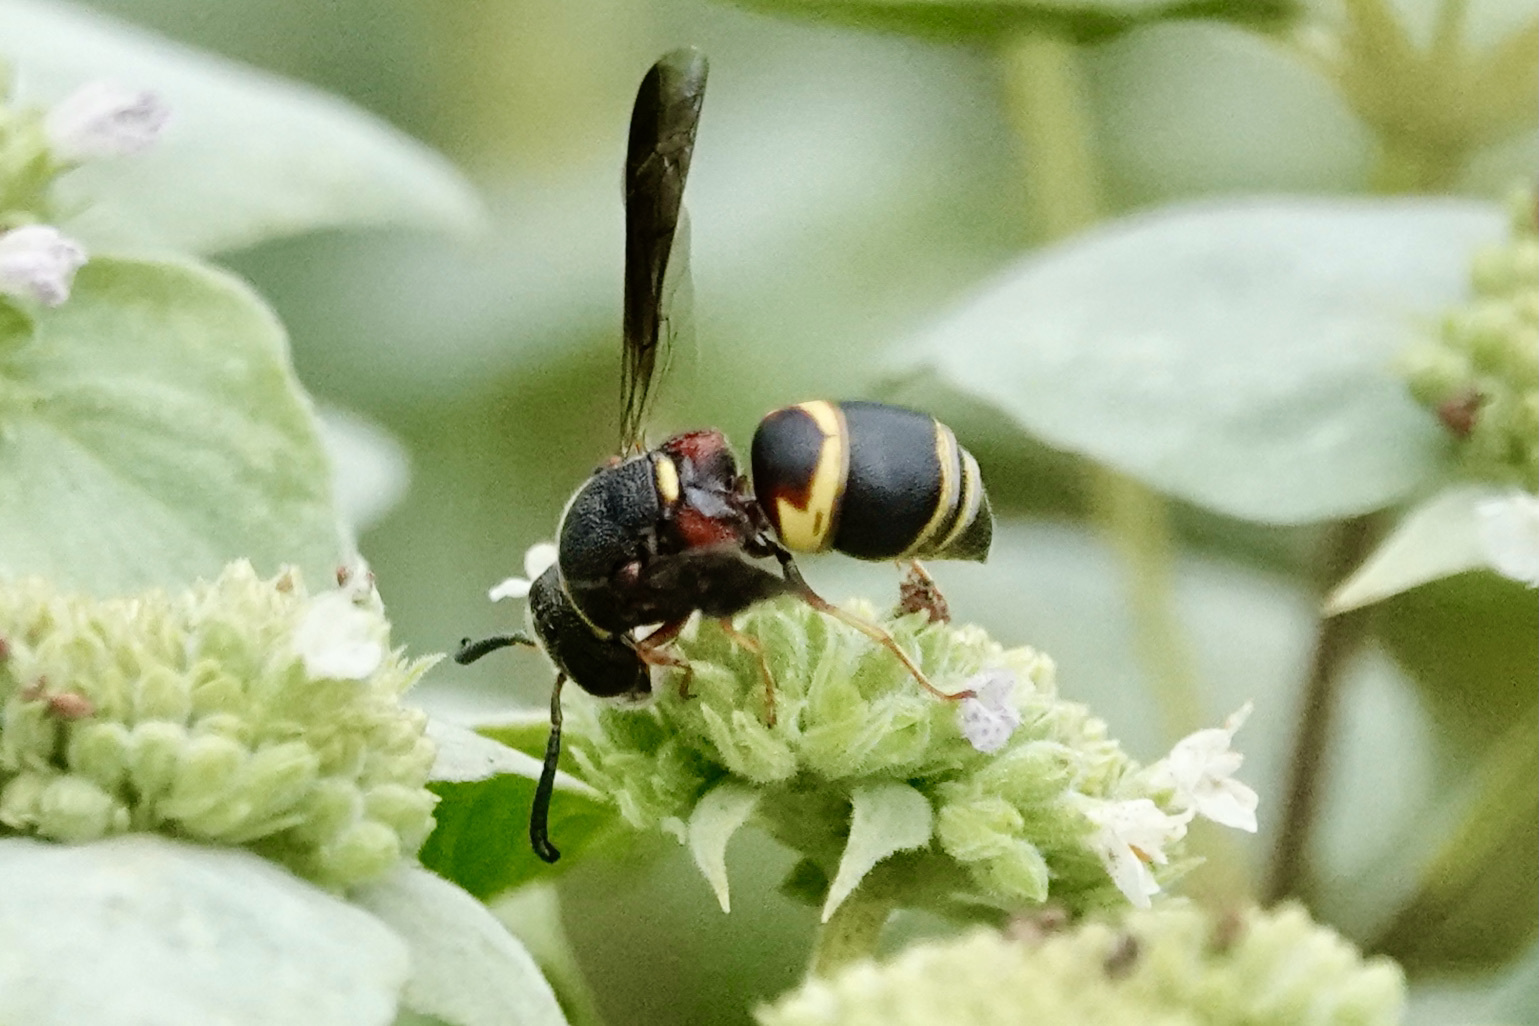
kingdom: Animalia
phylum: Arthropoda
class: Insecta
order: Hymenoptera
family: Eumenidae
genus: Euodynerus
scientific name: Euodynerus hidalgo
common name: Wasp
